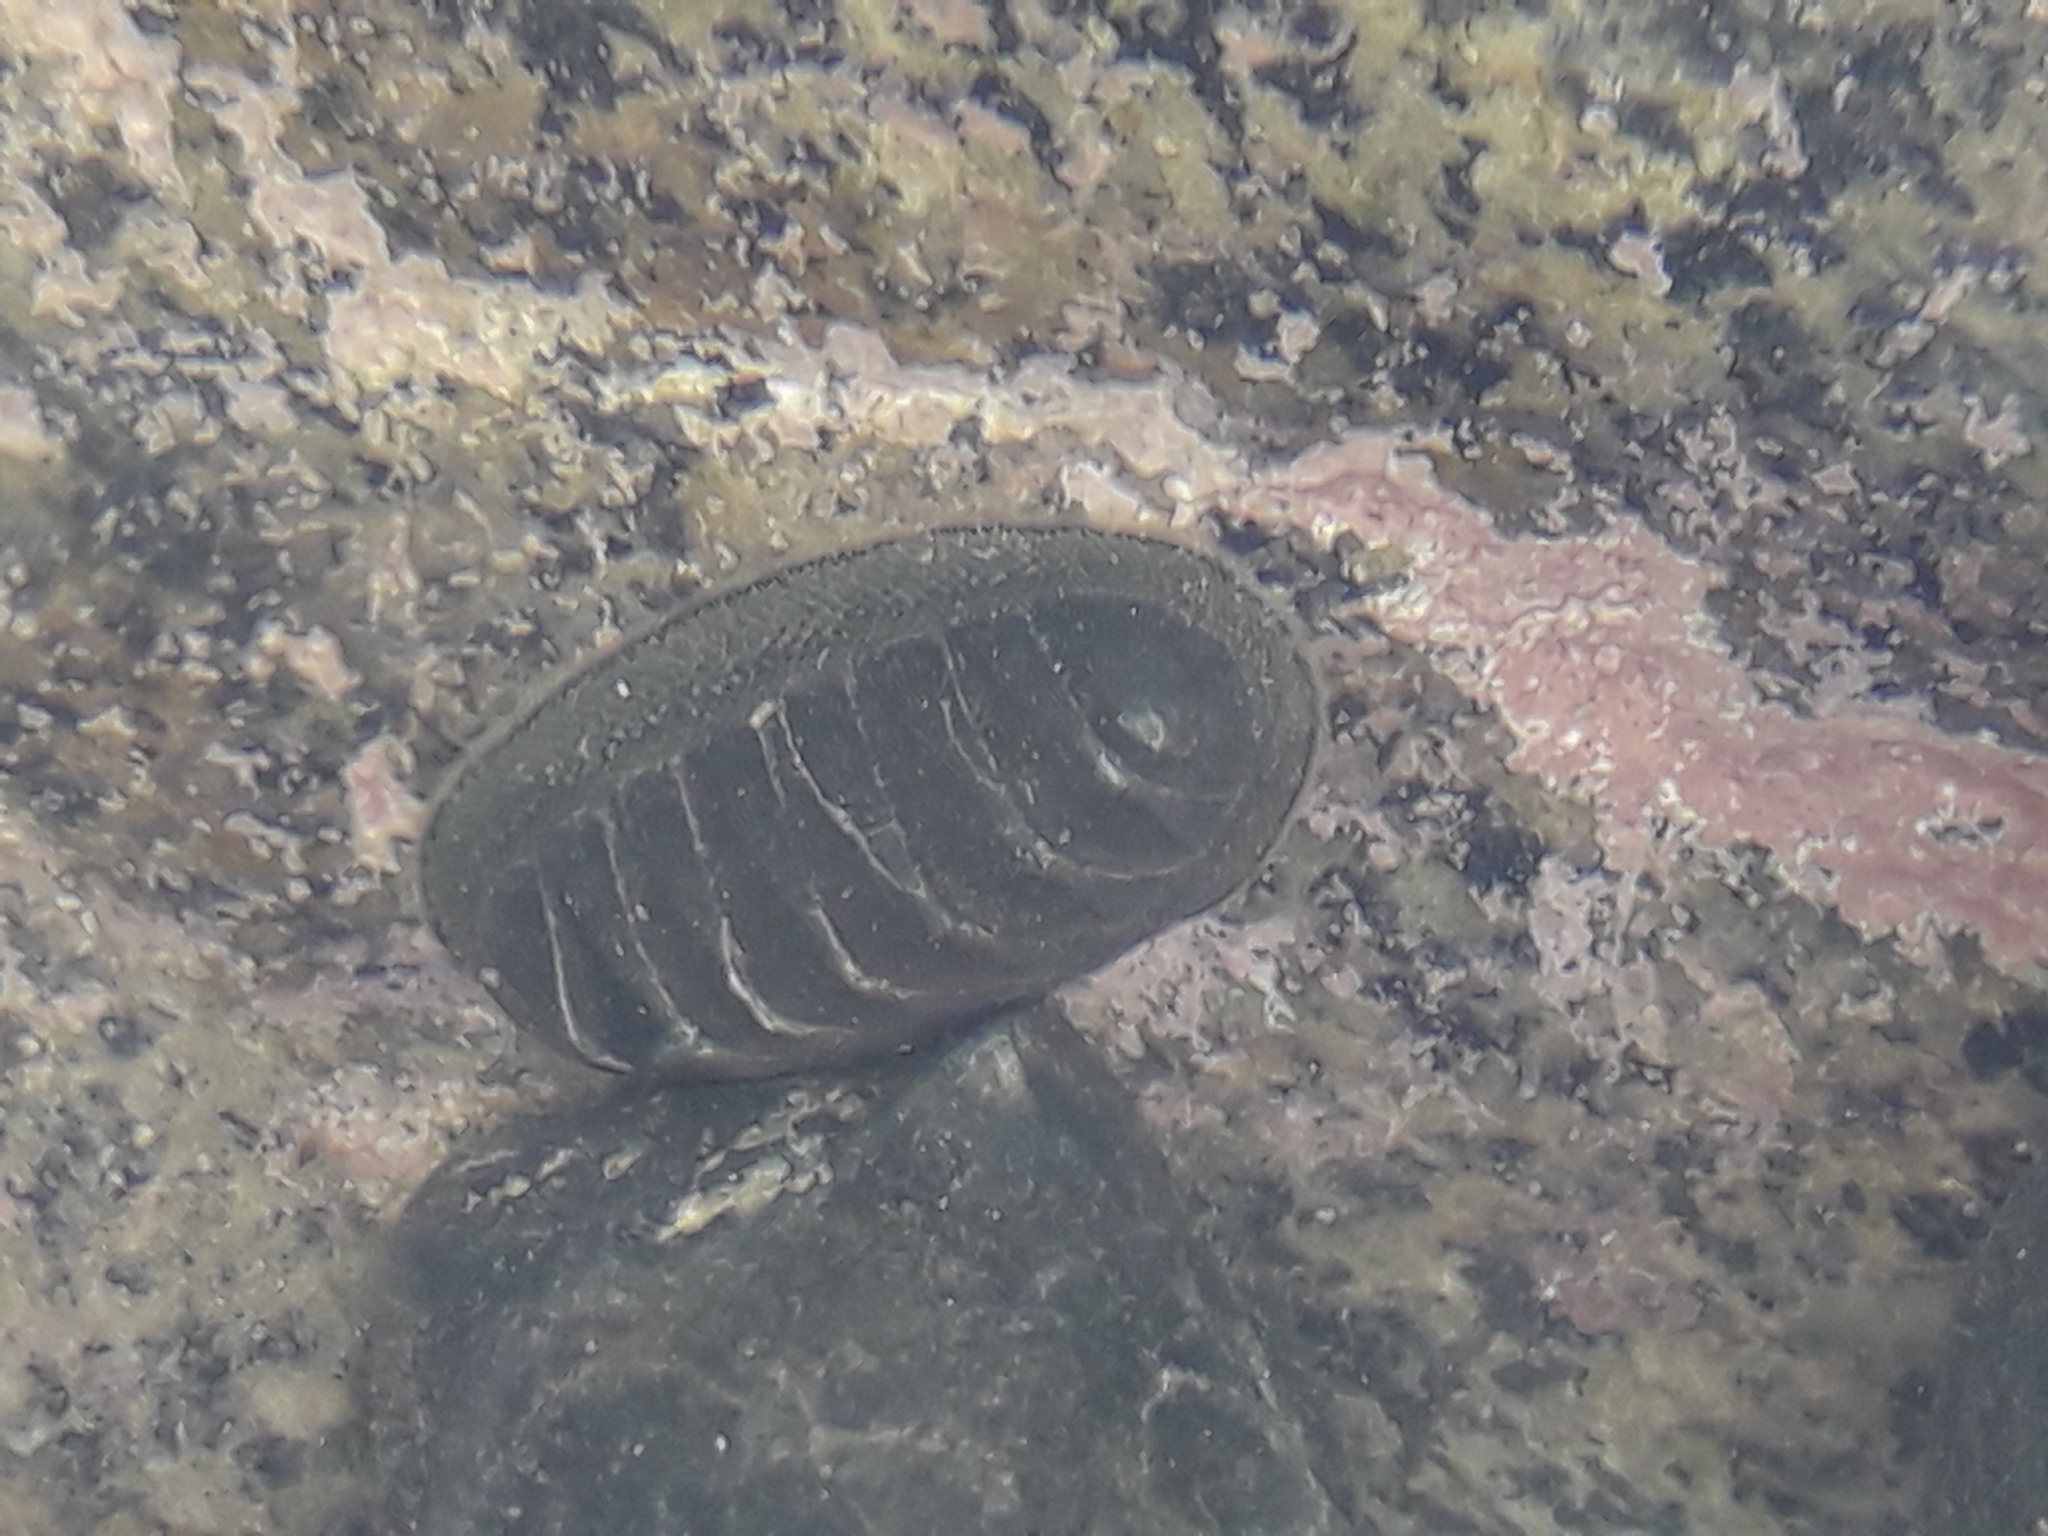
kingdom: Animalia
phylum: Mollusca
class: Polyplacophora
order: Chitonida
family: Chitonidae
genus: Chiton
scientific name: Chiton glaucus
